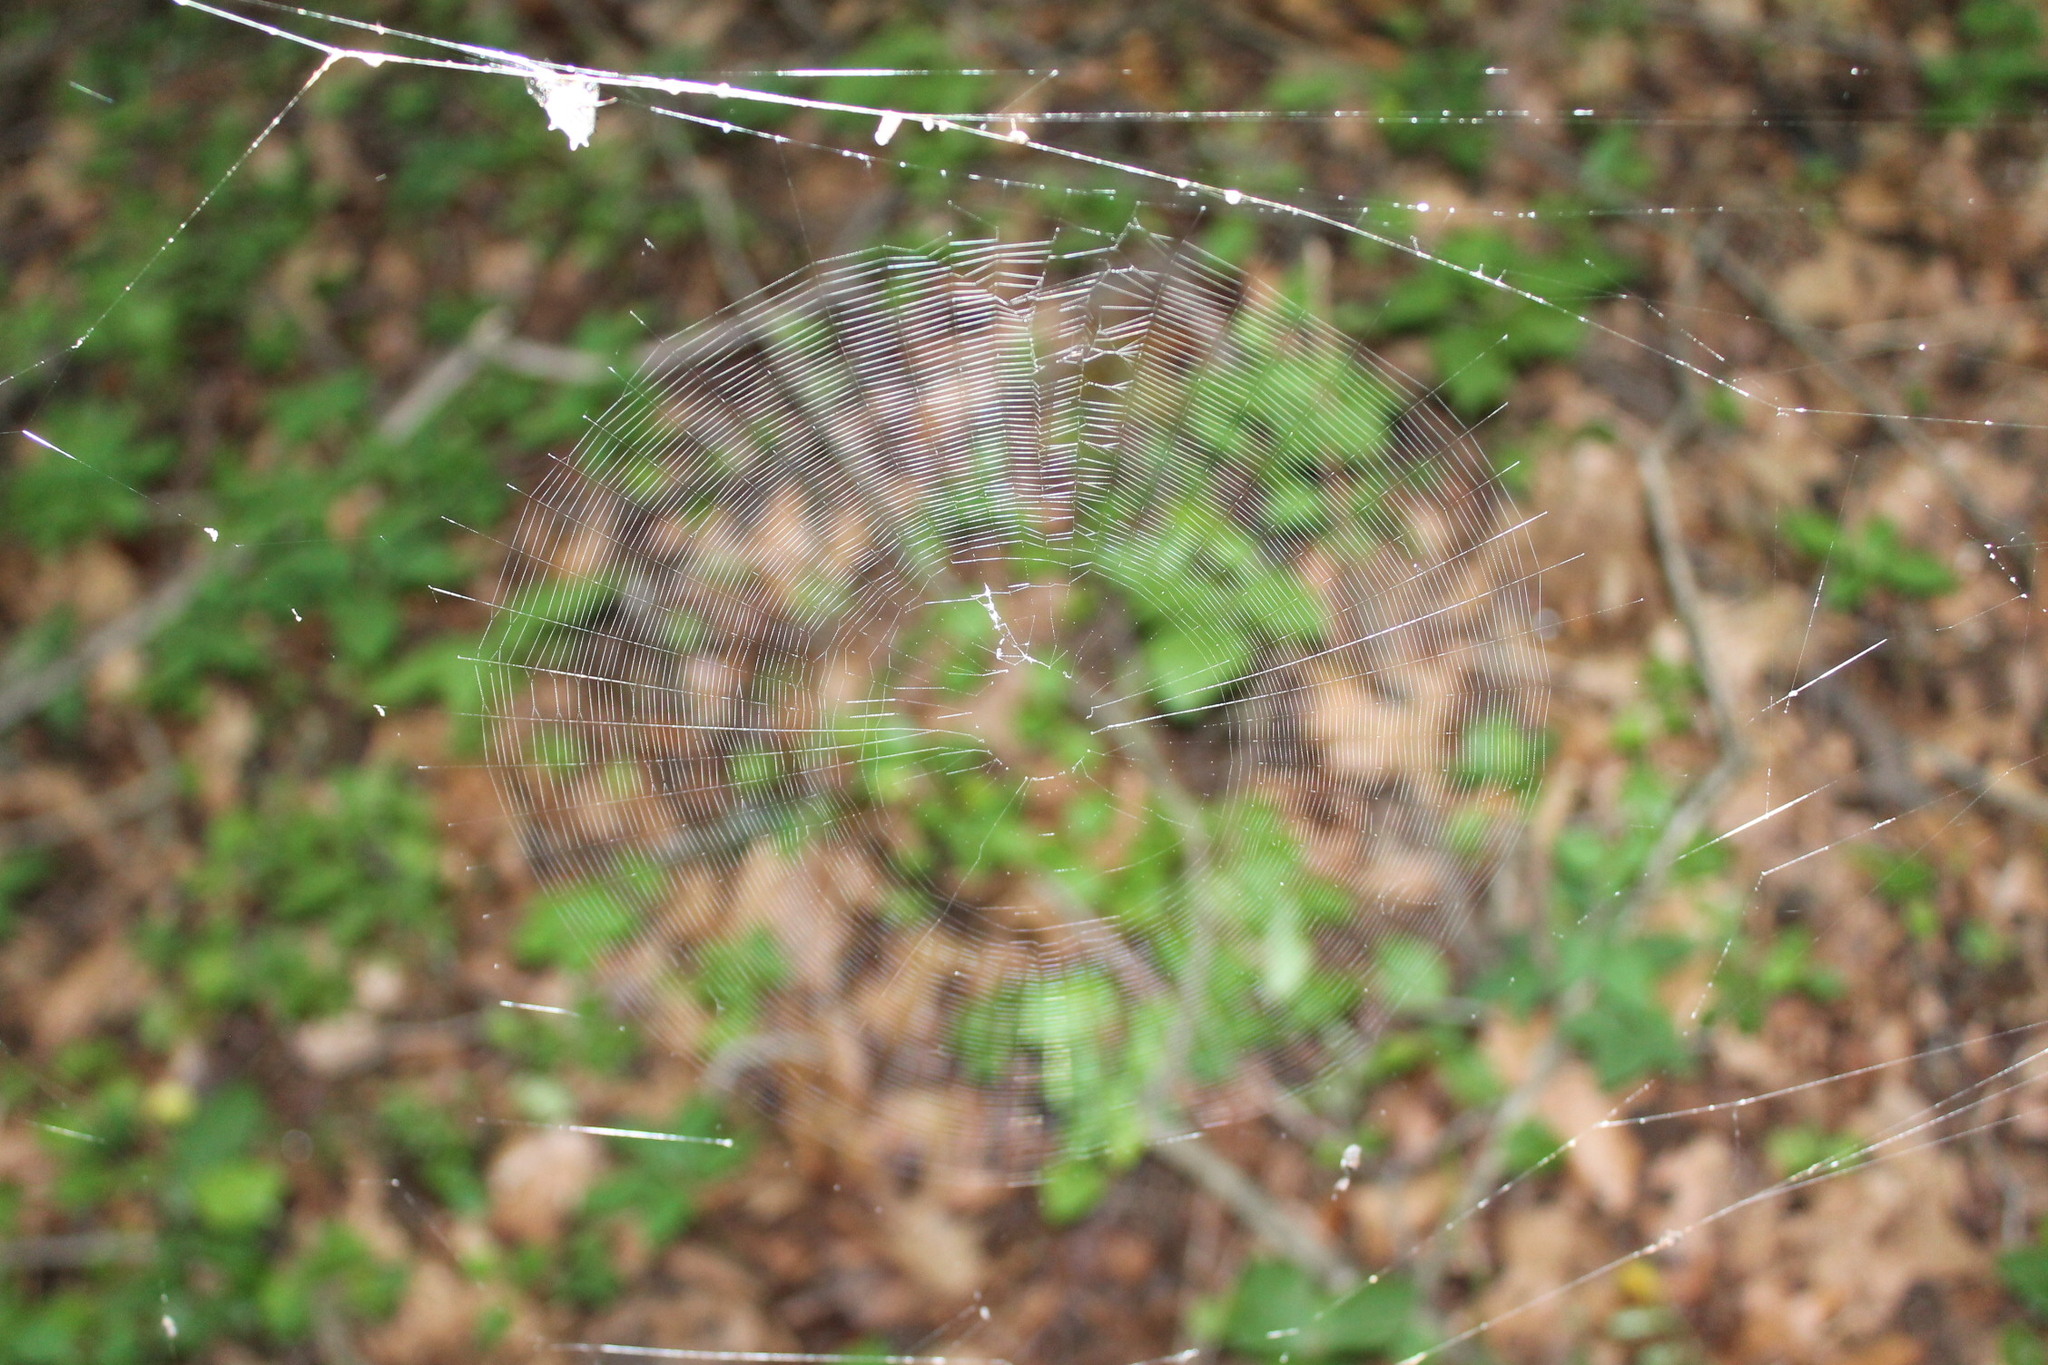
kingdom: Animalia
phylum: Arthropoda
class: Arachnida
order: Araneae
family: Araneidae
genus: Micrathena
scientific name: Micrathena gracilis
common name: Orb weavers
